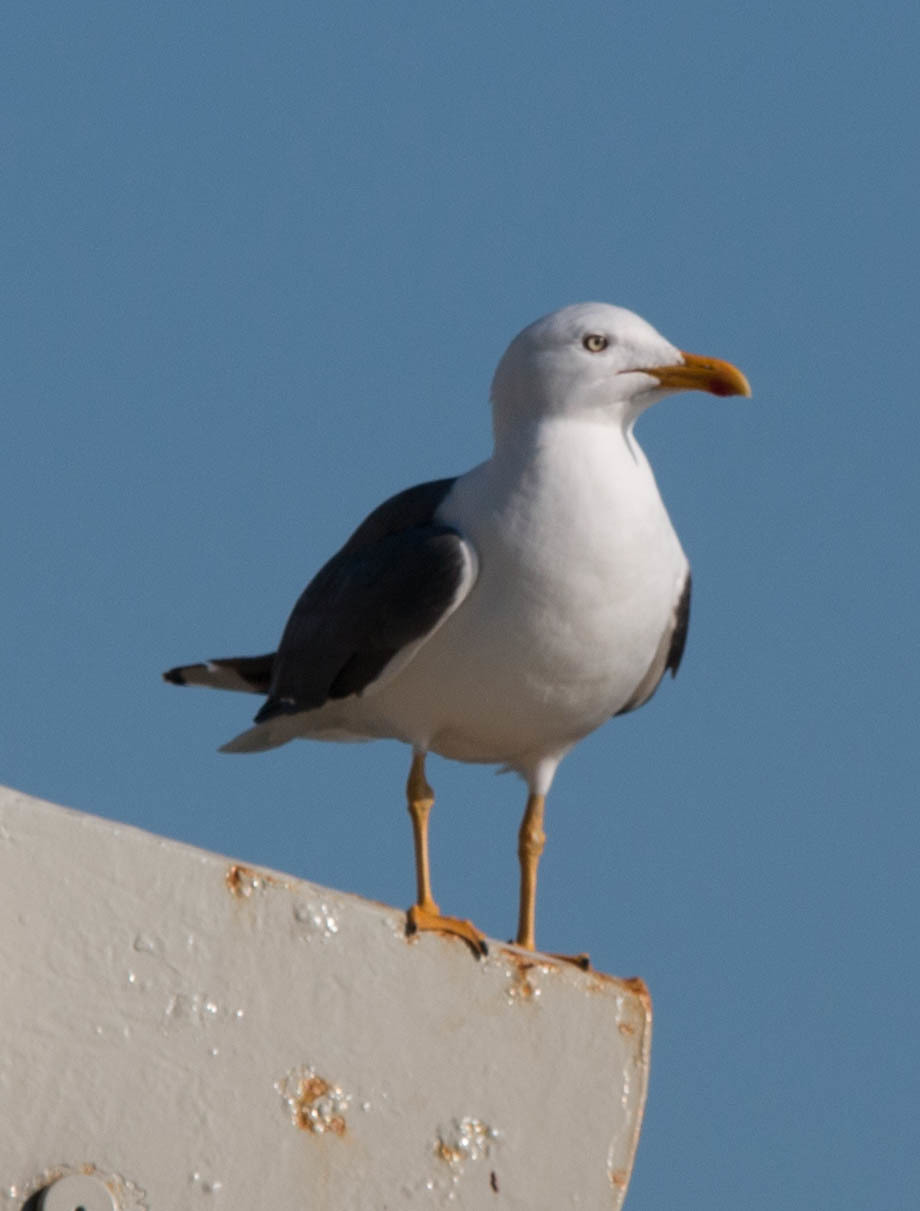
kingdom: Animalia
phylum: Chordata
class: Aves
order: Charadriiformes
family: Laridae
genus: Larus
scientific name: Larus fuscus
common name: Lesser black-backed gull
